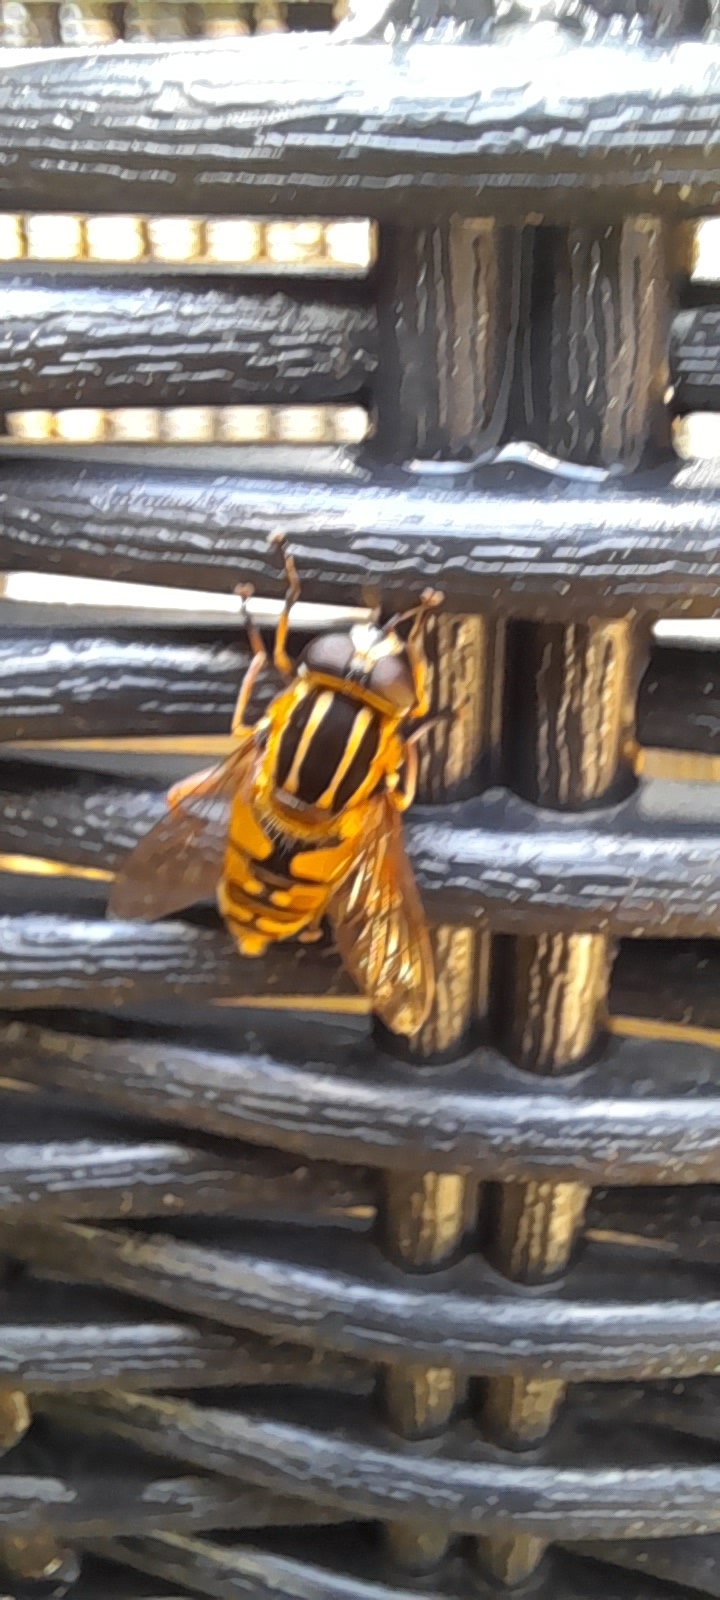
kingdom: Animalia
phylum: Arthropoda
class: Insecta
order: Diptera
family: Syrphidae
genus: Helophilus
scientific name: Helophilus pendulus
